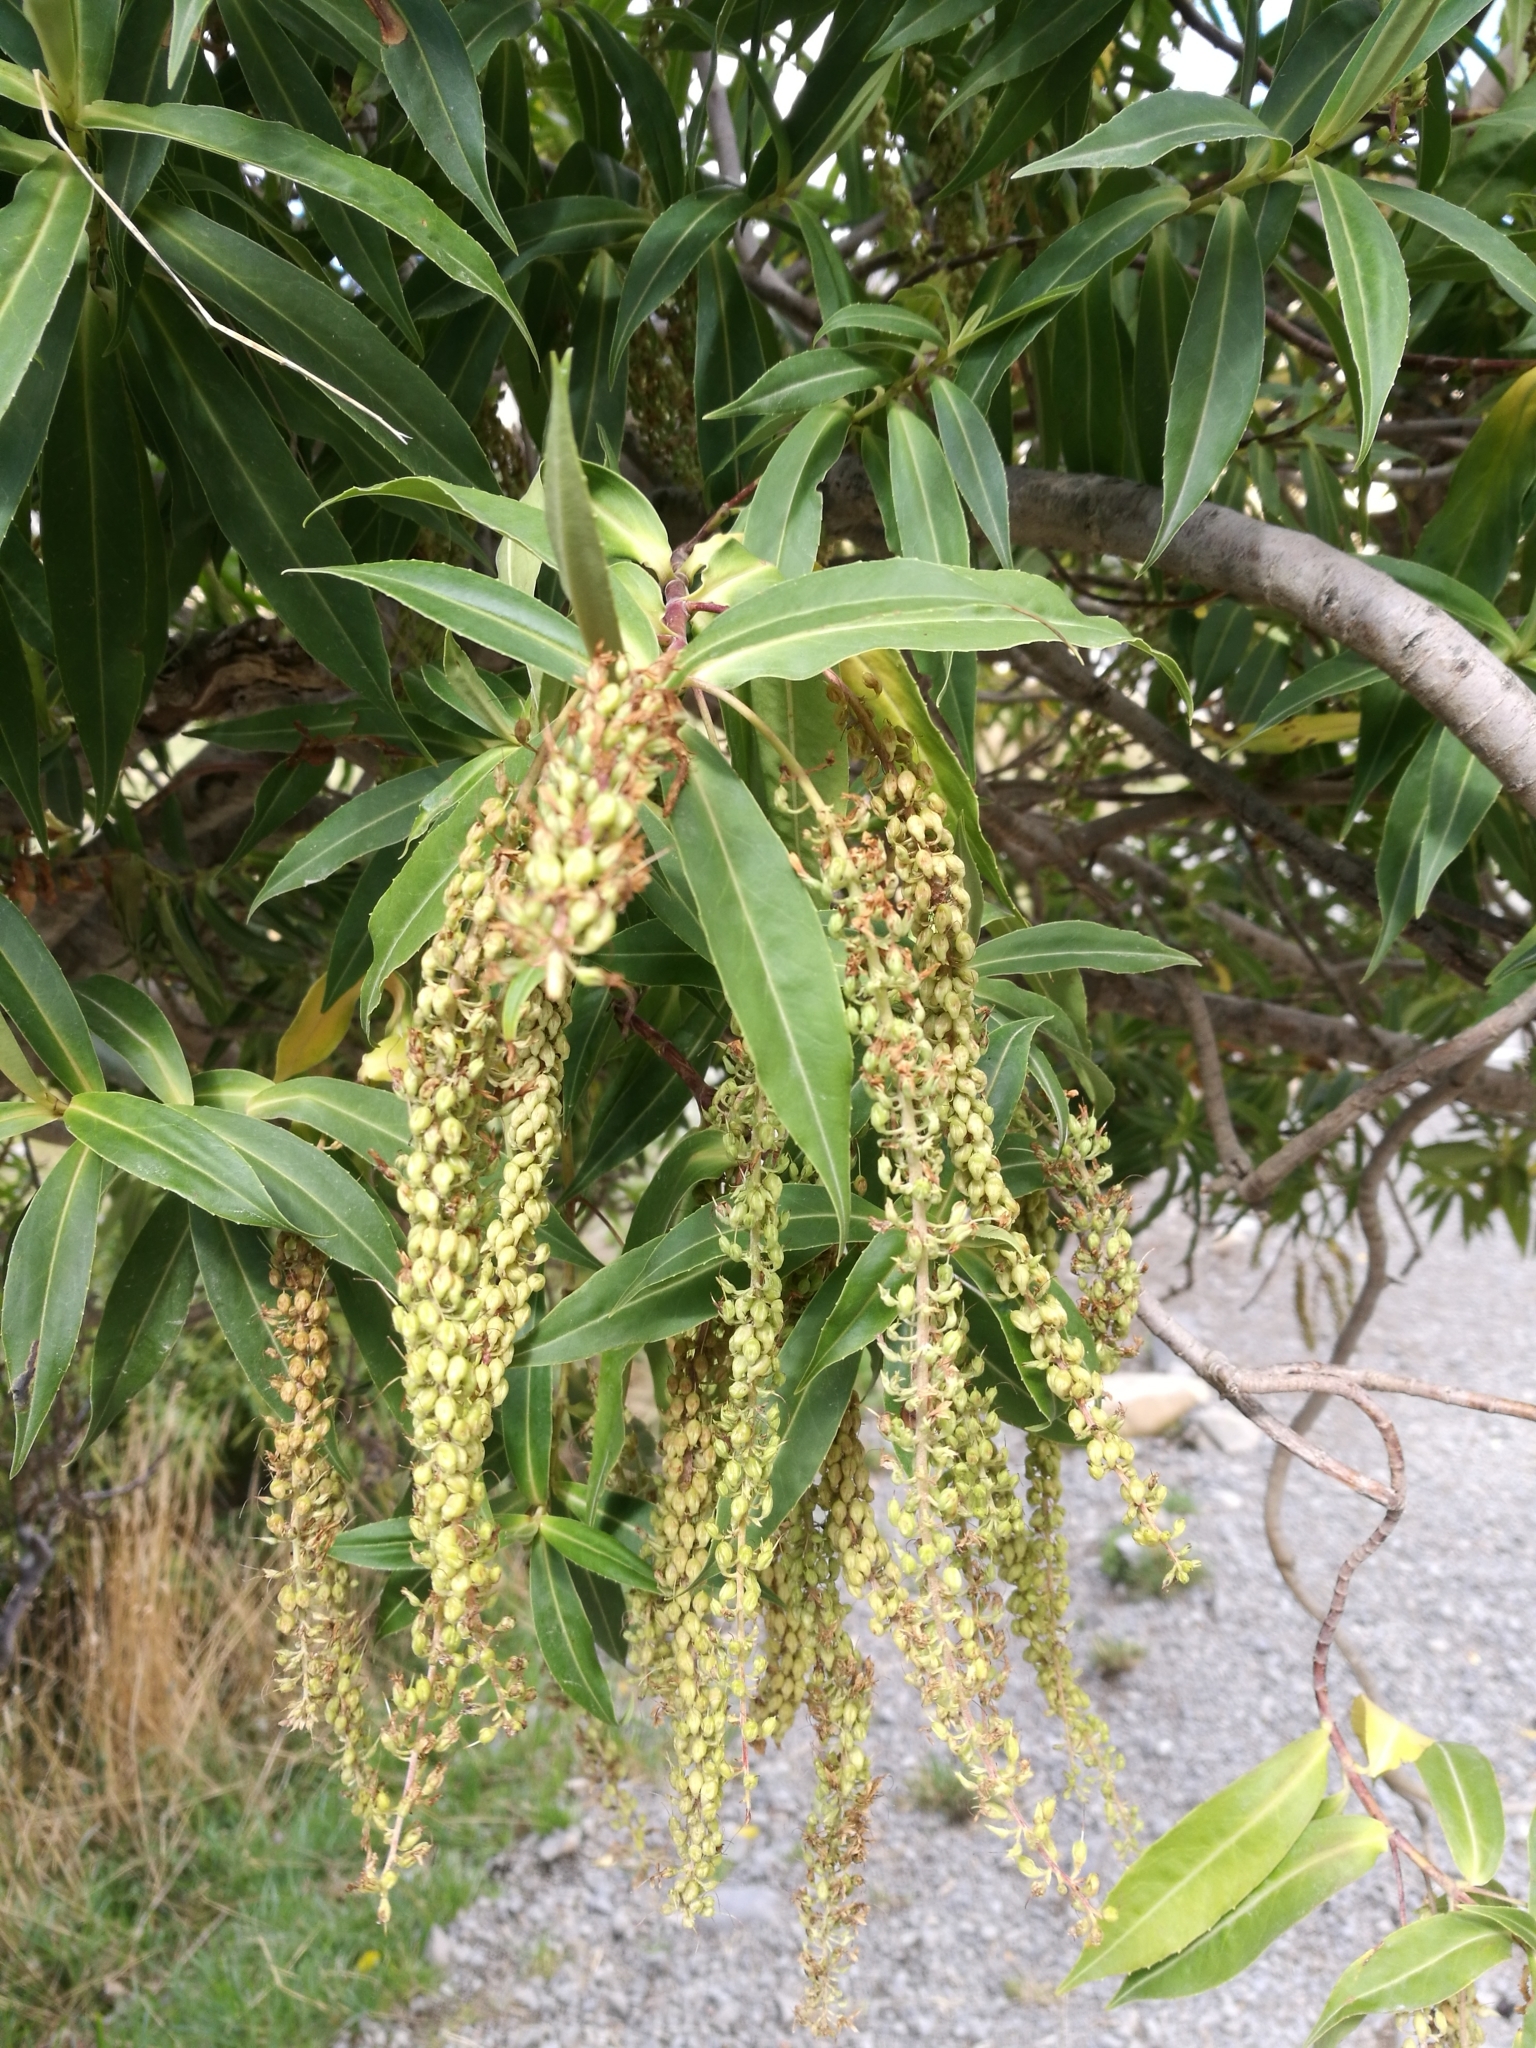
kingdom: Plantae
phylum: Tracheophyta
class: Magnoliopsida
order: Lamiales
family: Plantaginaceae
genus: Veronica
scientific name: Veronica salicifolia
